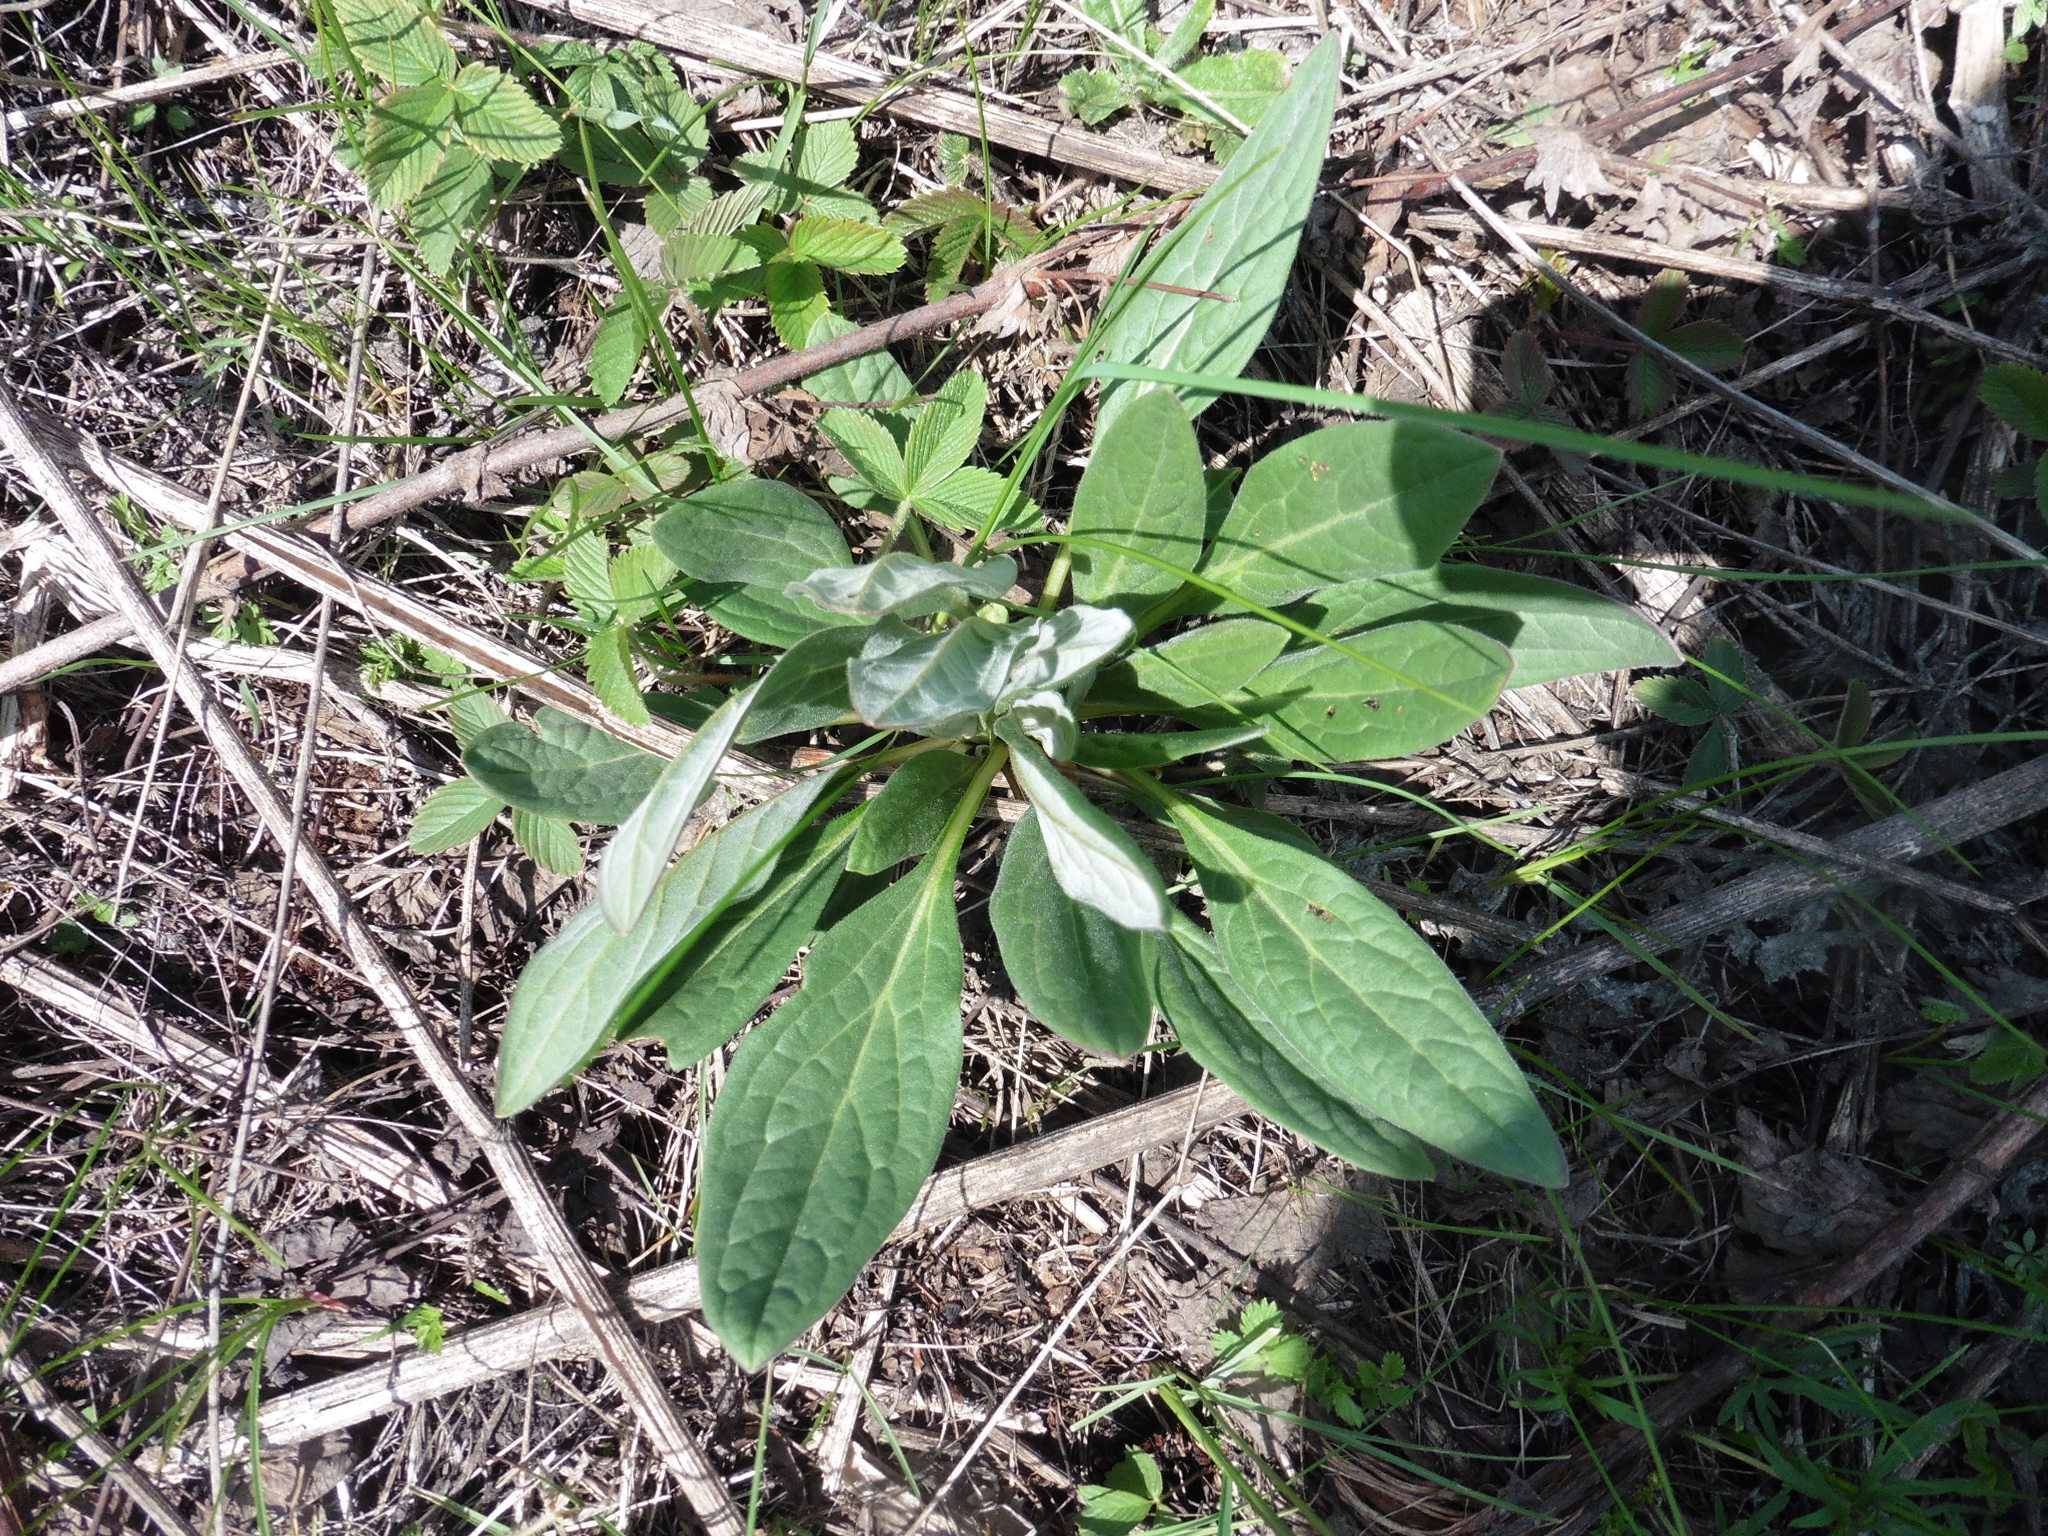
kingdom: Plantae
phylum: Tracheophyta
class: Magnoliopsida
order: Boraginales
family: Boraginaceae
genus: Cynoglossum
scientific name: Cynoglossum officinale
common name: Hound's-tongue
